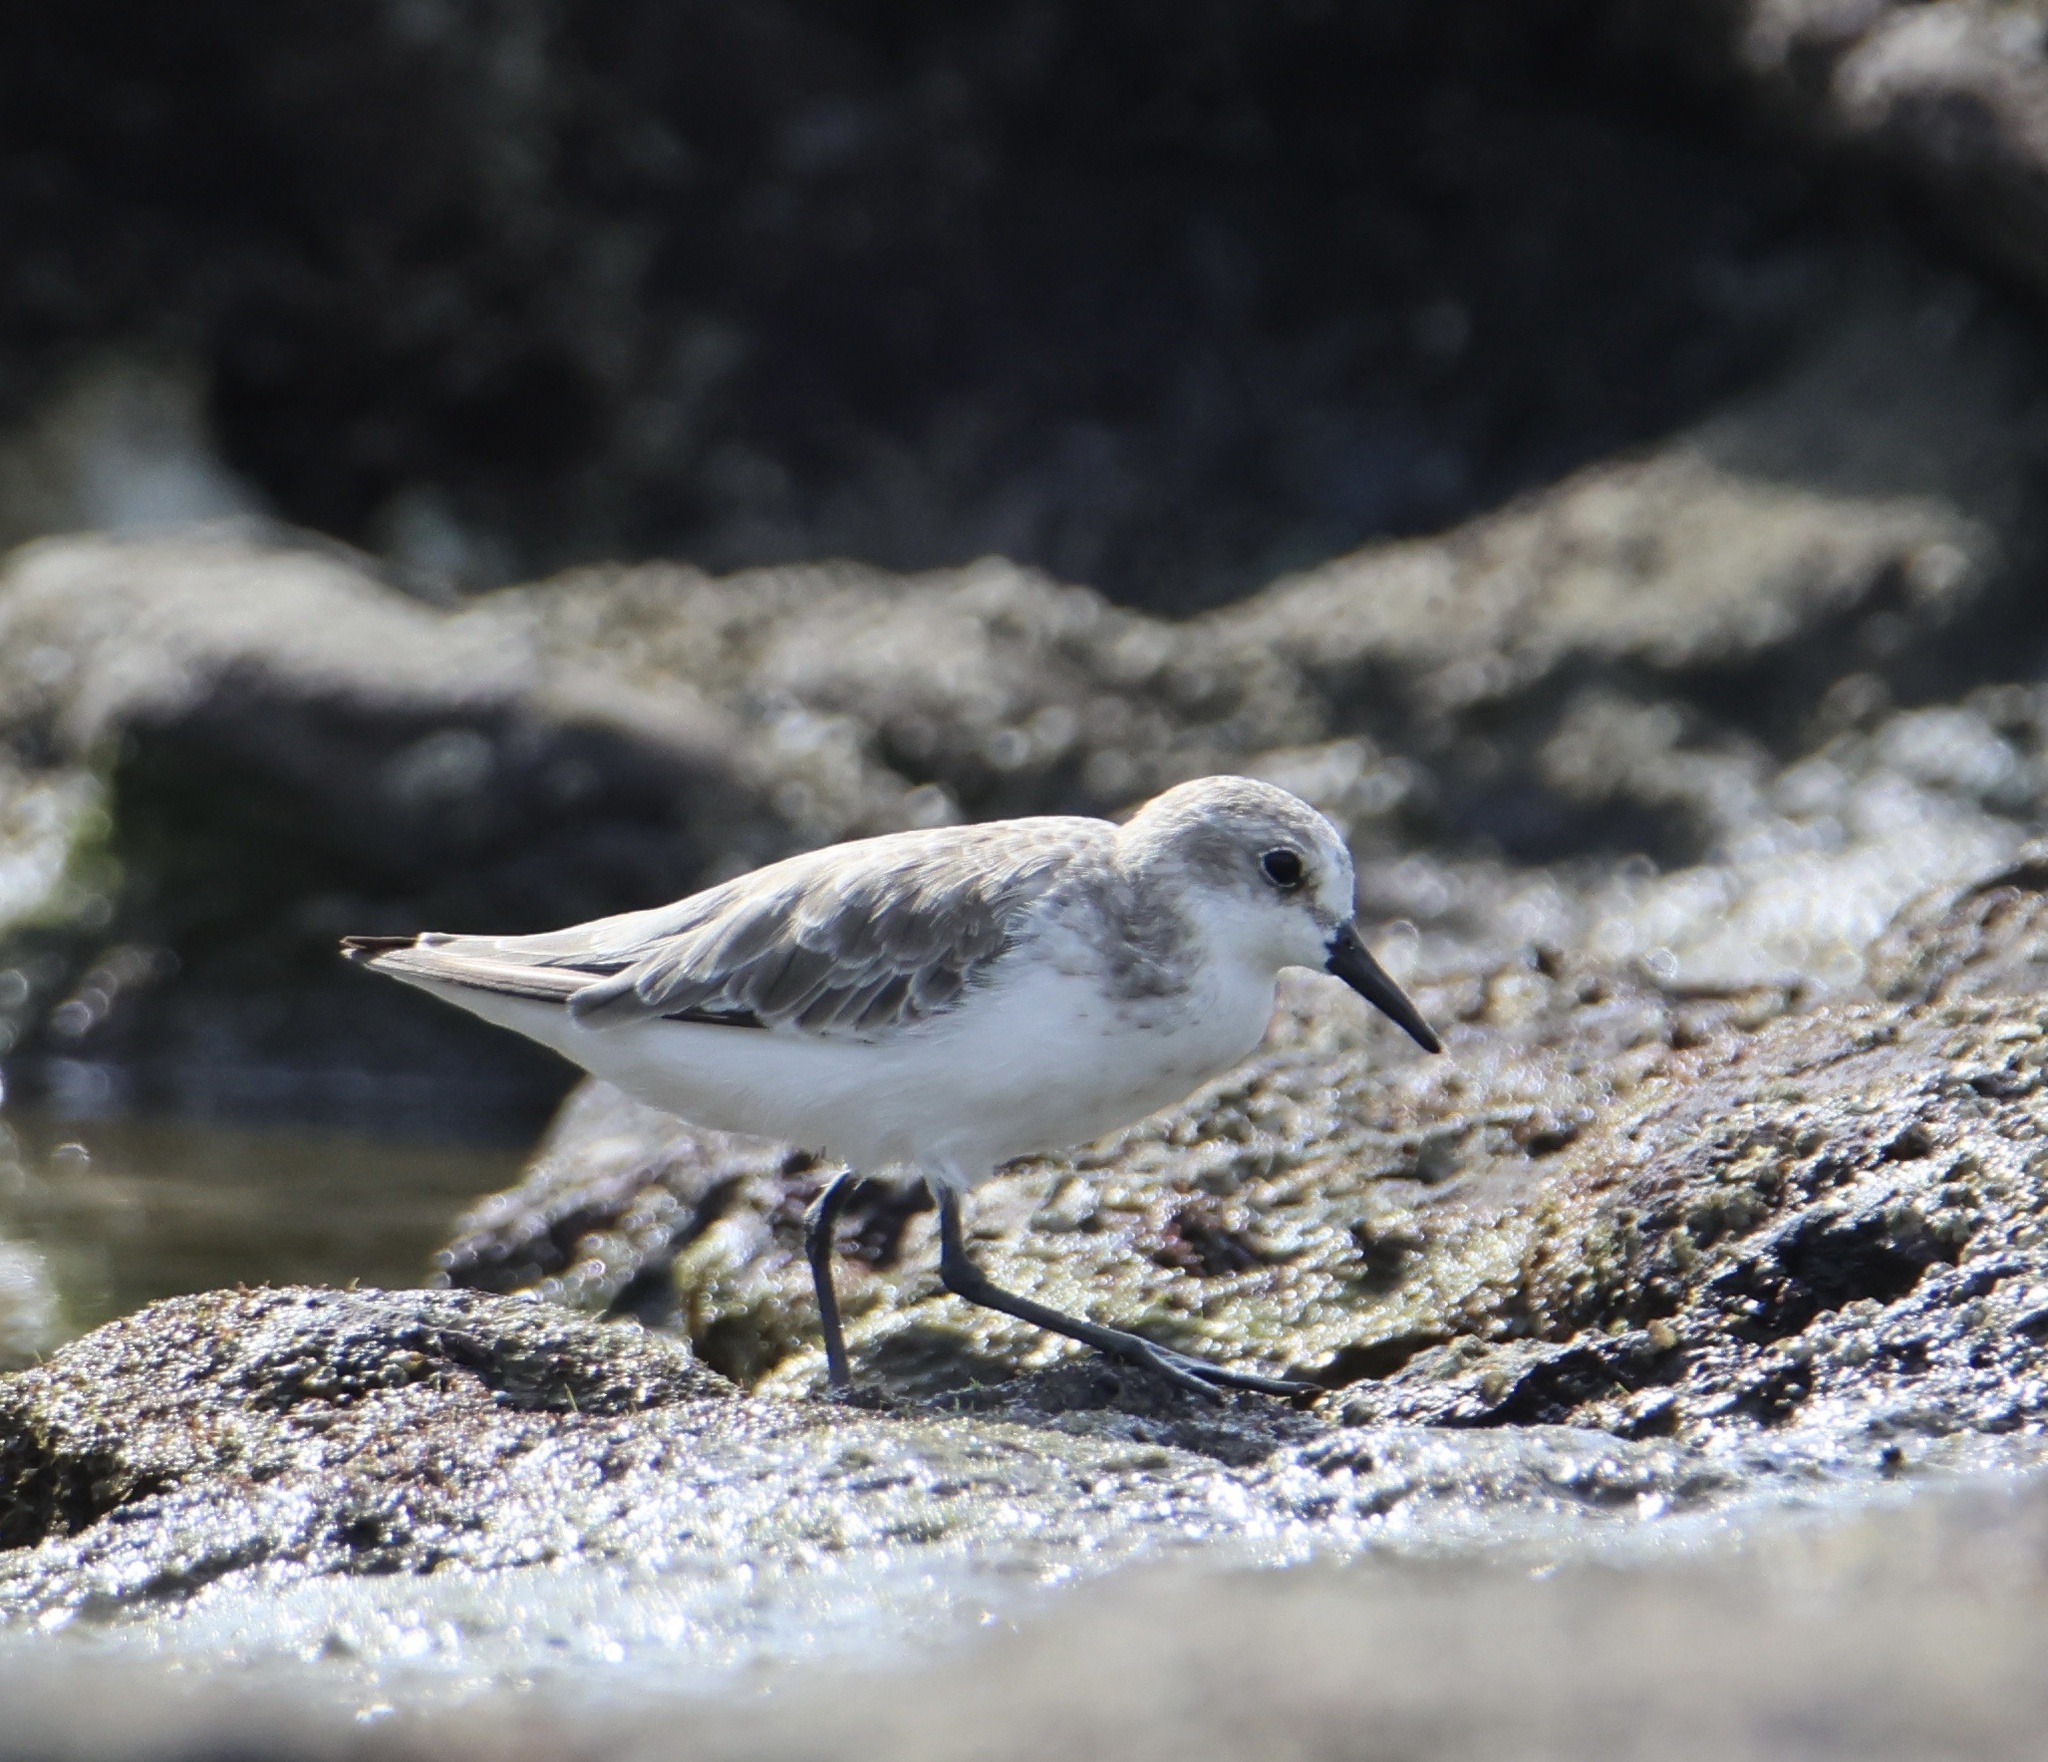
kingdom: Animalia
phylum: Chordata
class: Aves
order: Charadriiformes
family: Scolopacidae
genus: Calidris
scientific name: Calidris alba
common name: Sanderling
